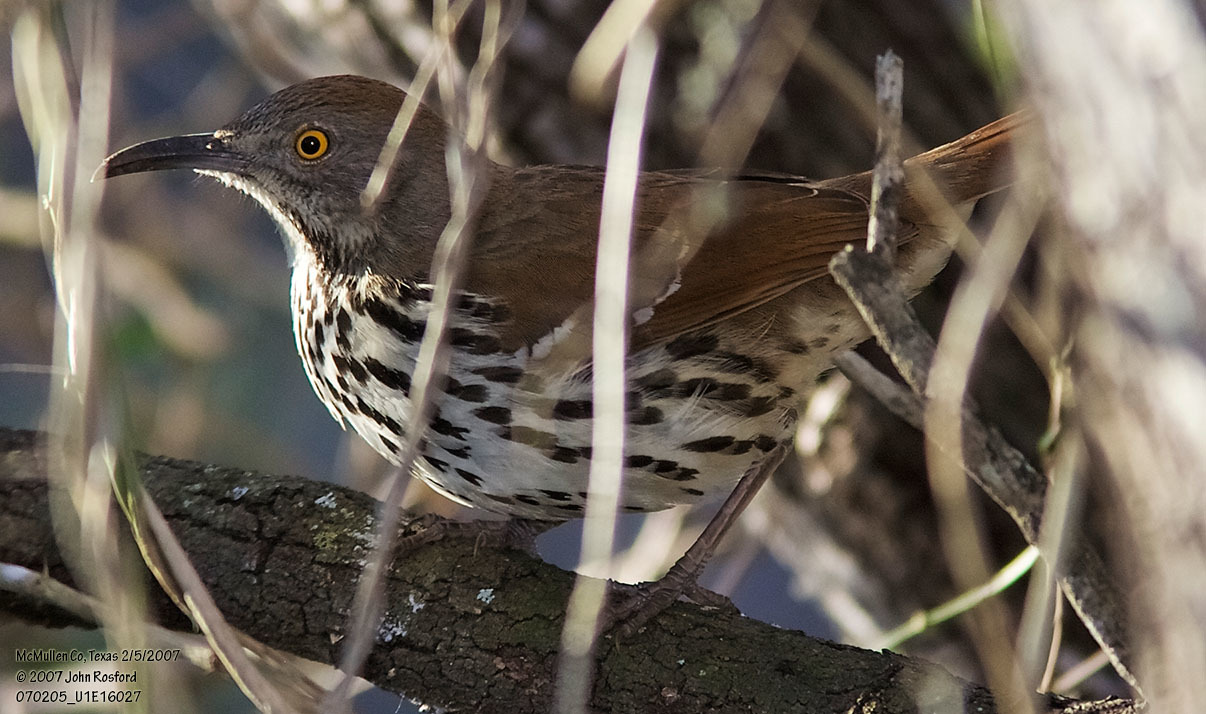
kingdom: Animalia
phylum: Chordata
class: Aves
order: Passeriformes
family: Mimidae
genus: Toxostoma
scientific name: Toxostoma longirostre
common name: Long-billed thrasher
